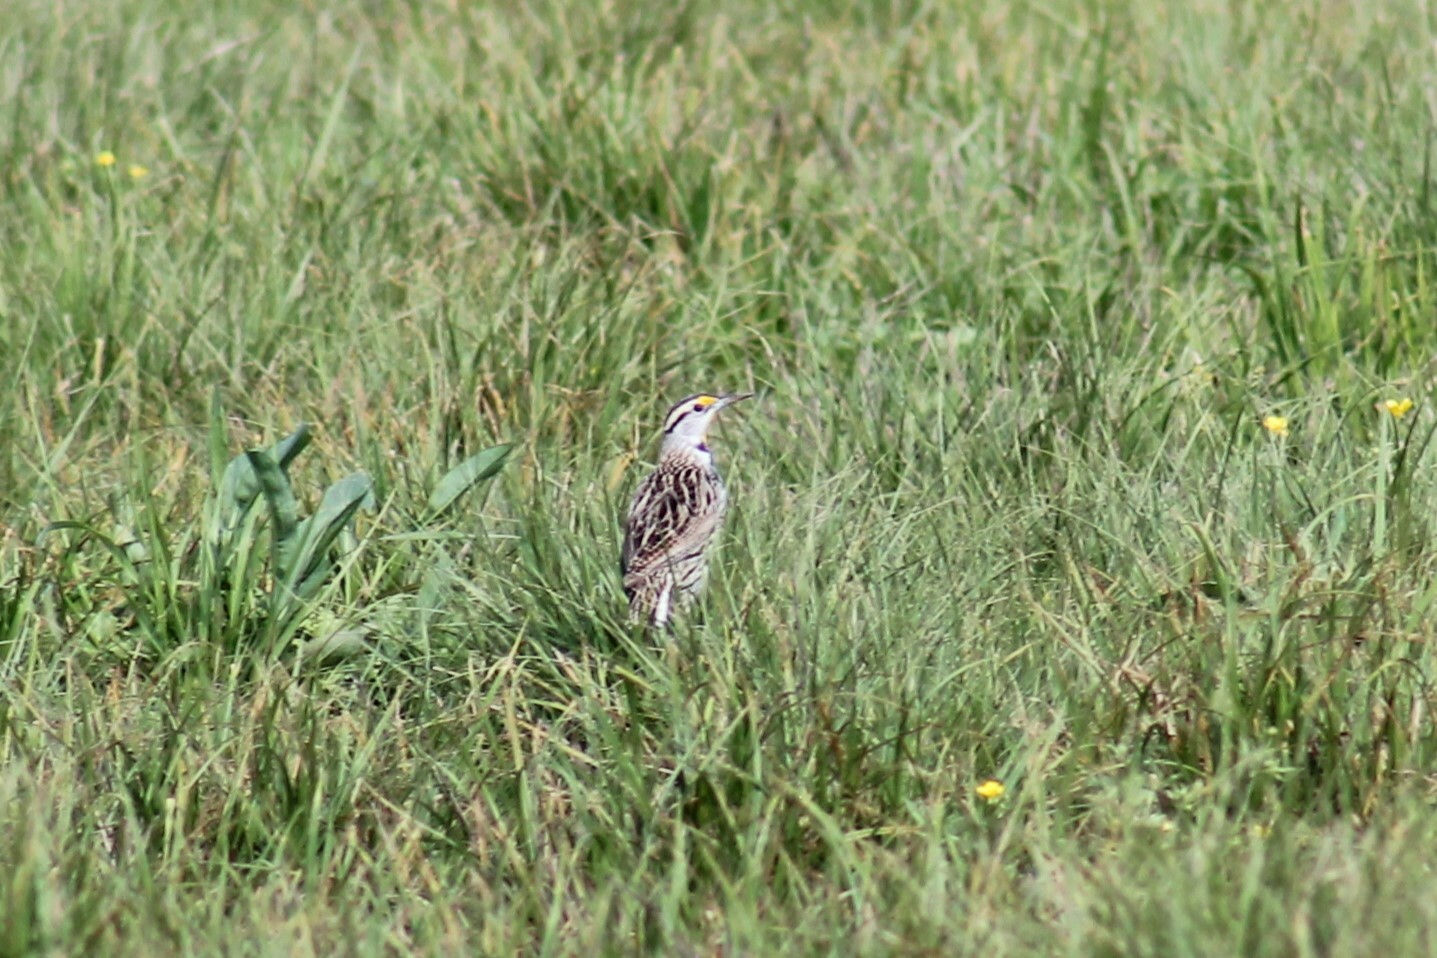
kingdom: Animalia
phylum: Chordata
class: Aves
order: Passeriformes
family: Icteridae
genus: Sturnella
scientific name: Sturnella magna
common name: Eastern meadowlark
